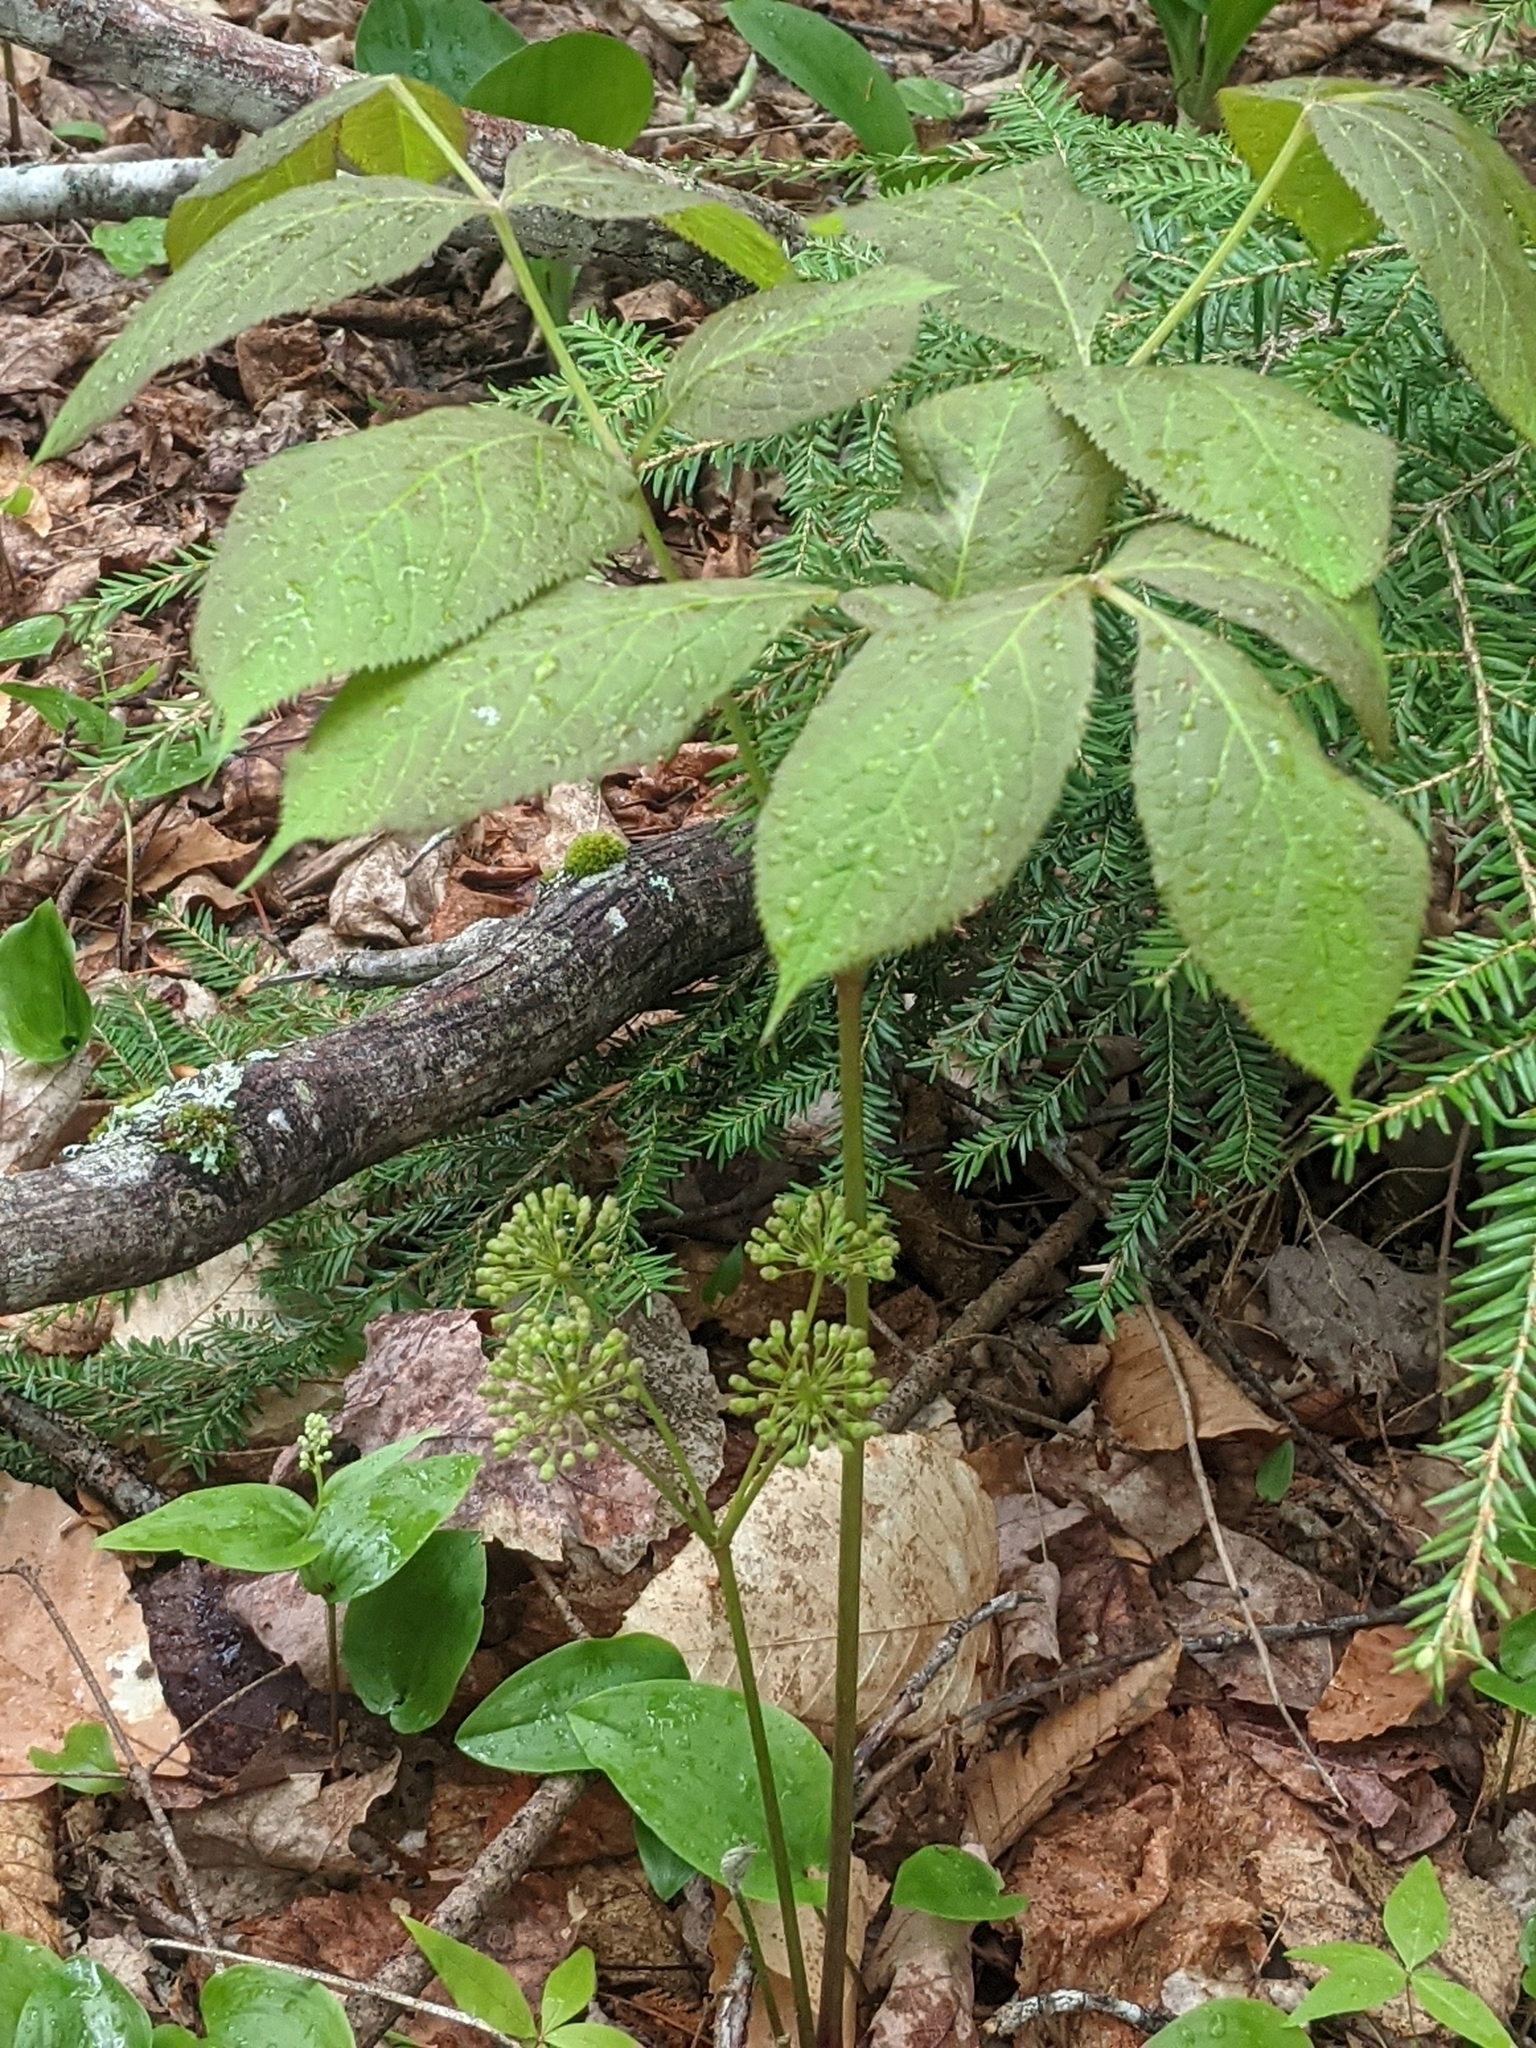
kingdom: Plantae
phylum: Tracheophyta
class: Magnoliopsida
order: Apiales
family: Araliaceae
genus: Aralia
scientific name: Aralia nudicaulis
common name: Wild sarsaparilla
